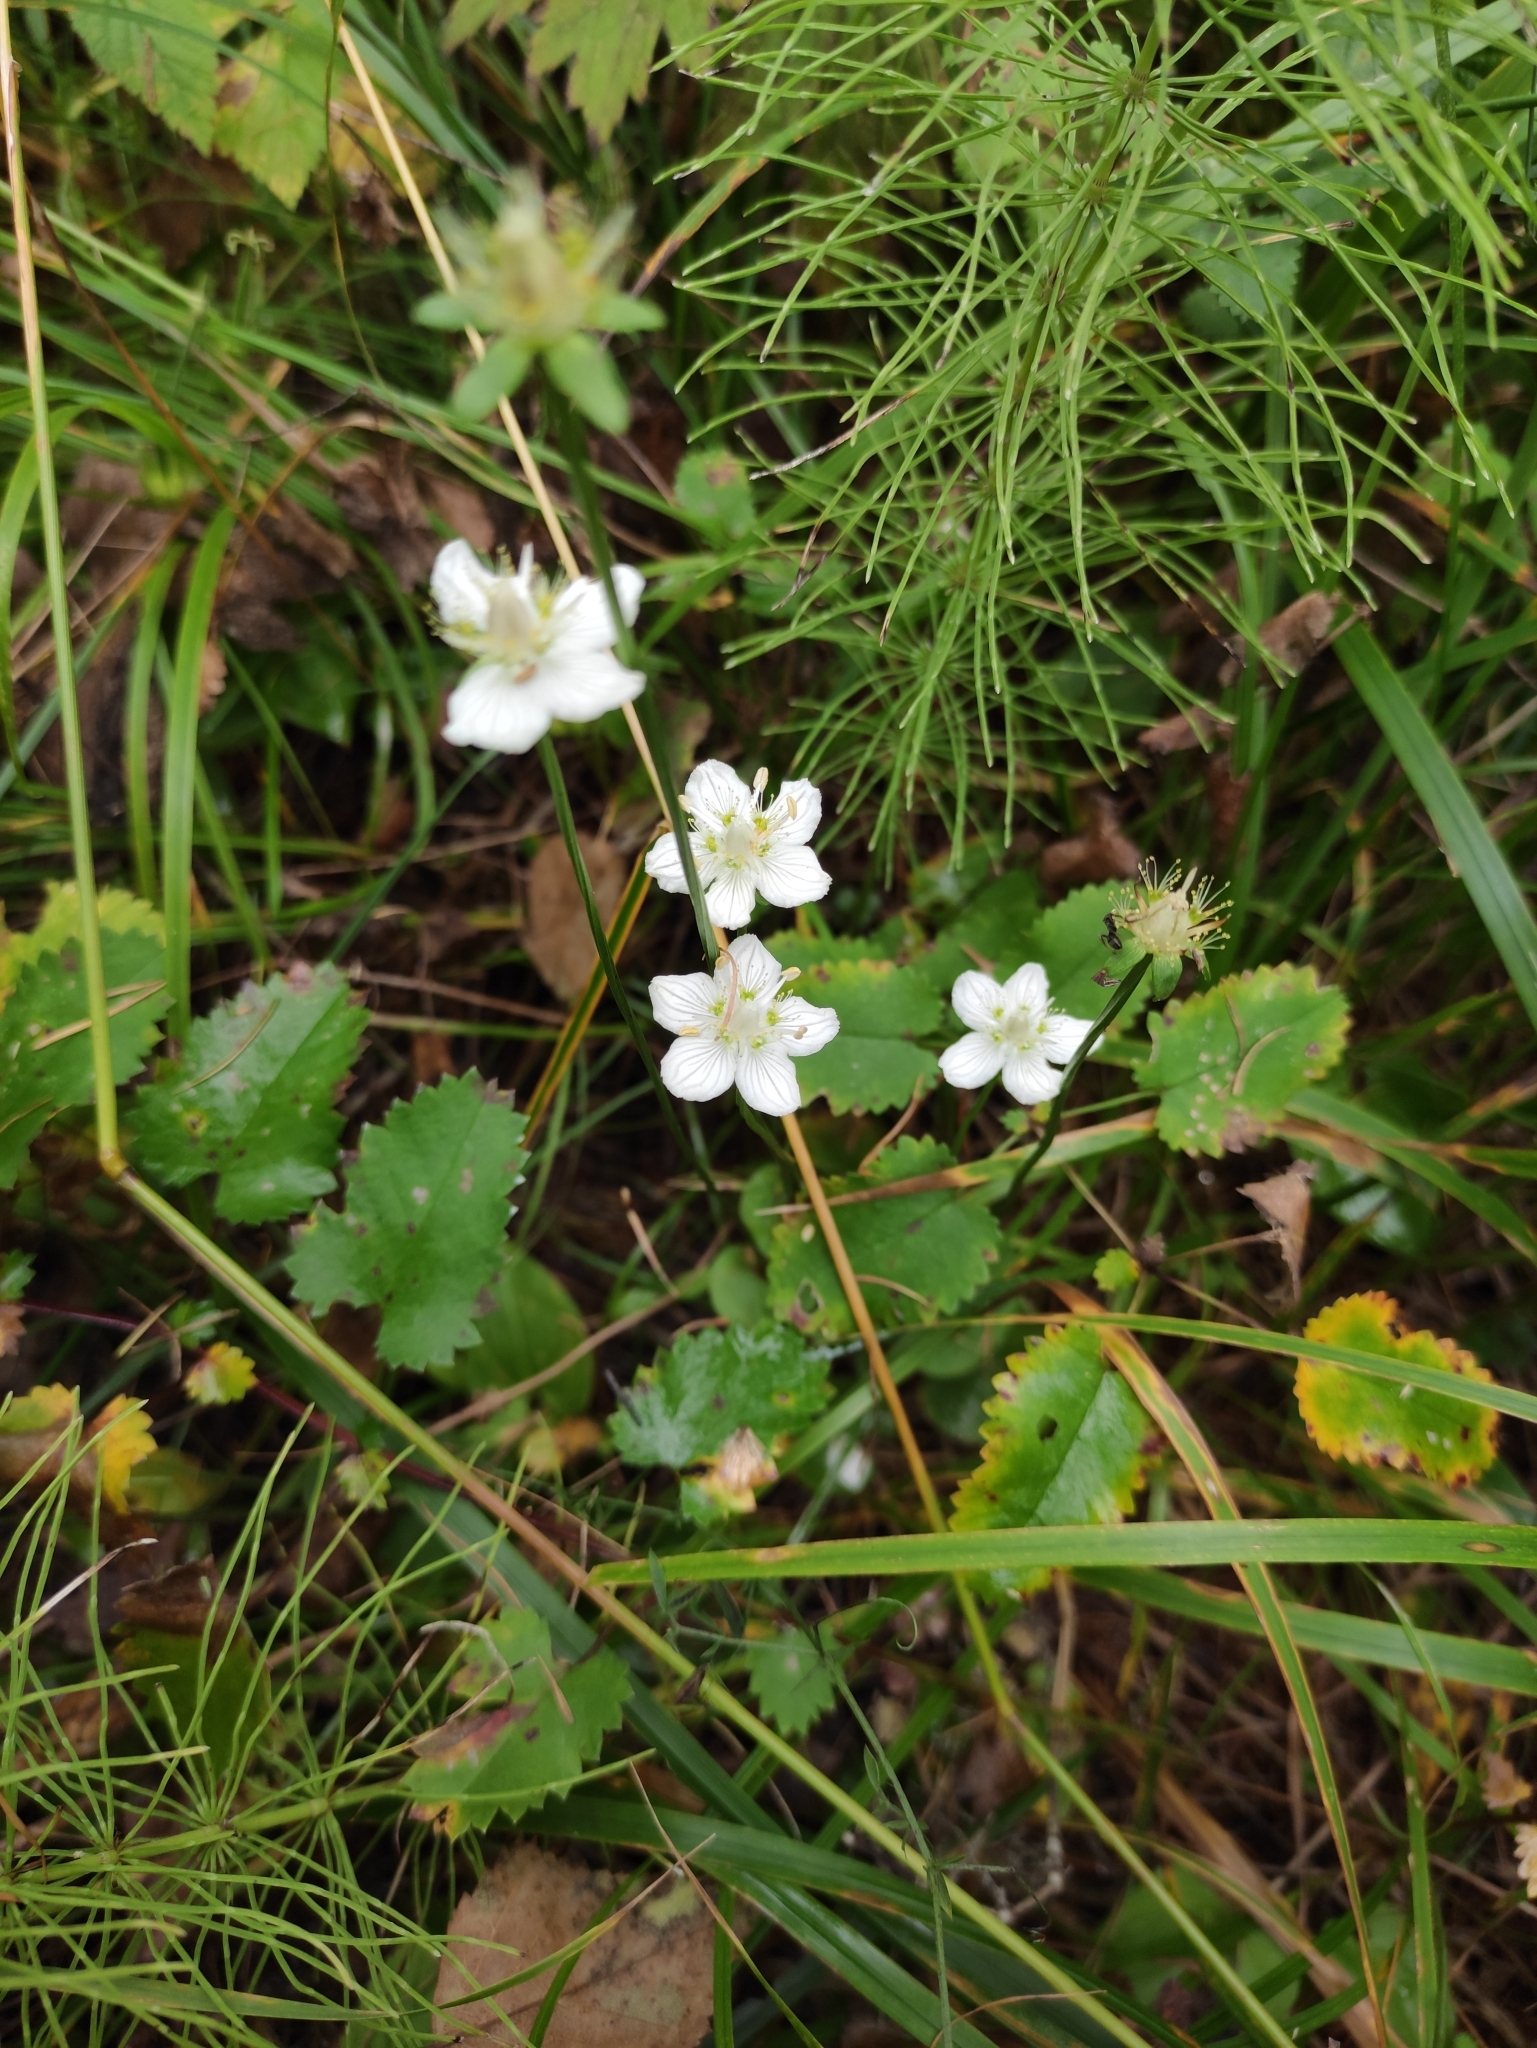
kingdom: Plantae
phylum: Tracheophyta
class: Magnoliopsida
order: Celastrales
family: Parnassiaceae
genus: Parnassia
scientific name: Parnassia palustris
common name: Grass-of-parnassus
